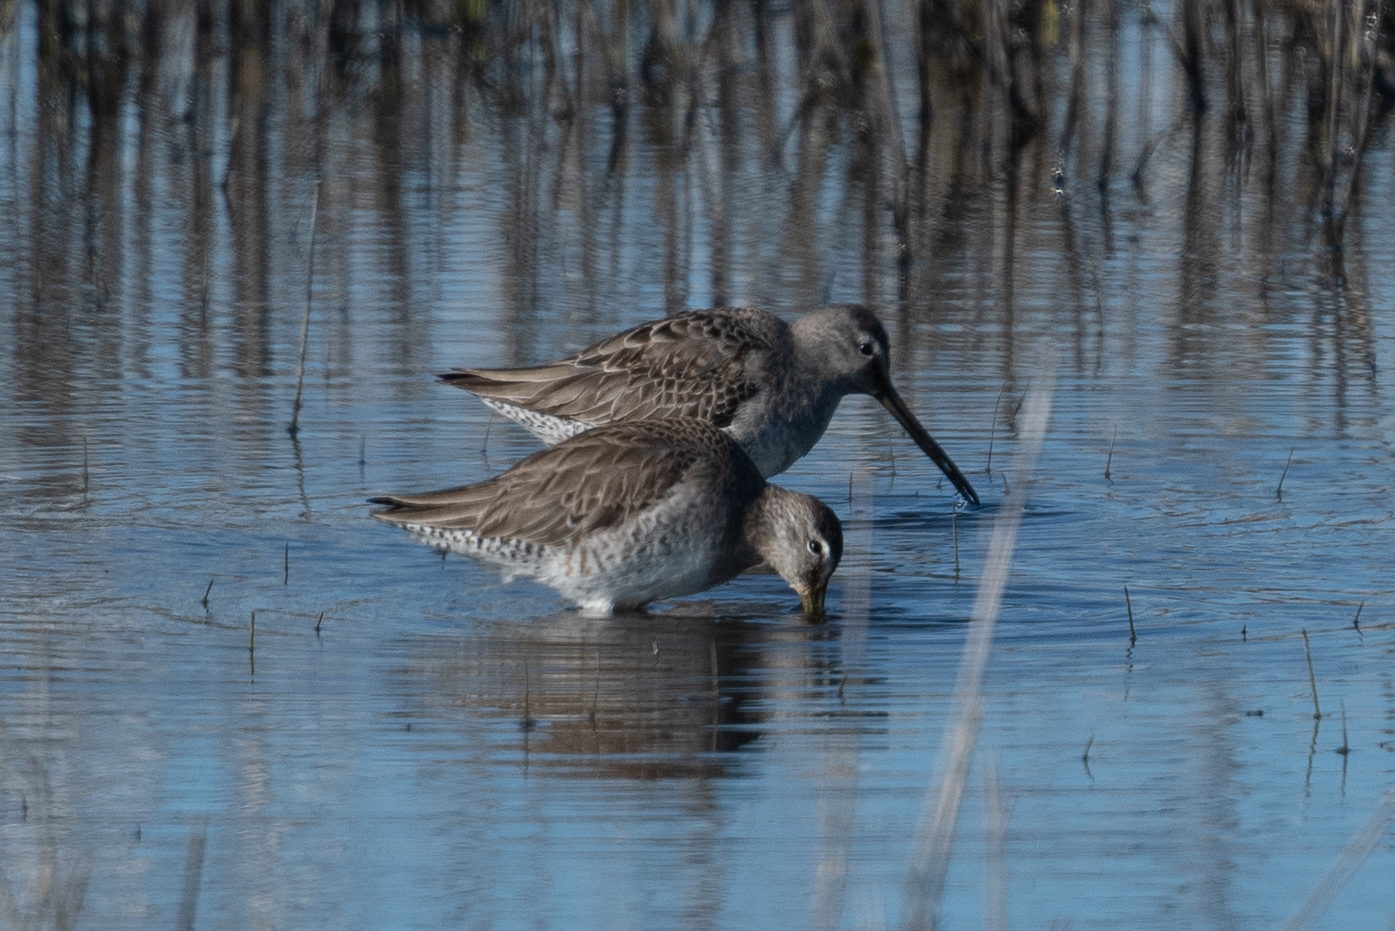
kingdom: Animalia
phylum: Chordata
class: Aves
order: Charadriiformes
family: Scolopacidae
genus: Limnodromus
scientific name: Limnodromus scolopaceus
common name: Long-billed dowitcher
